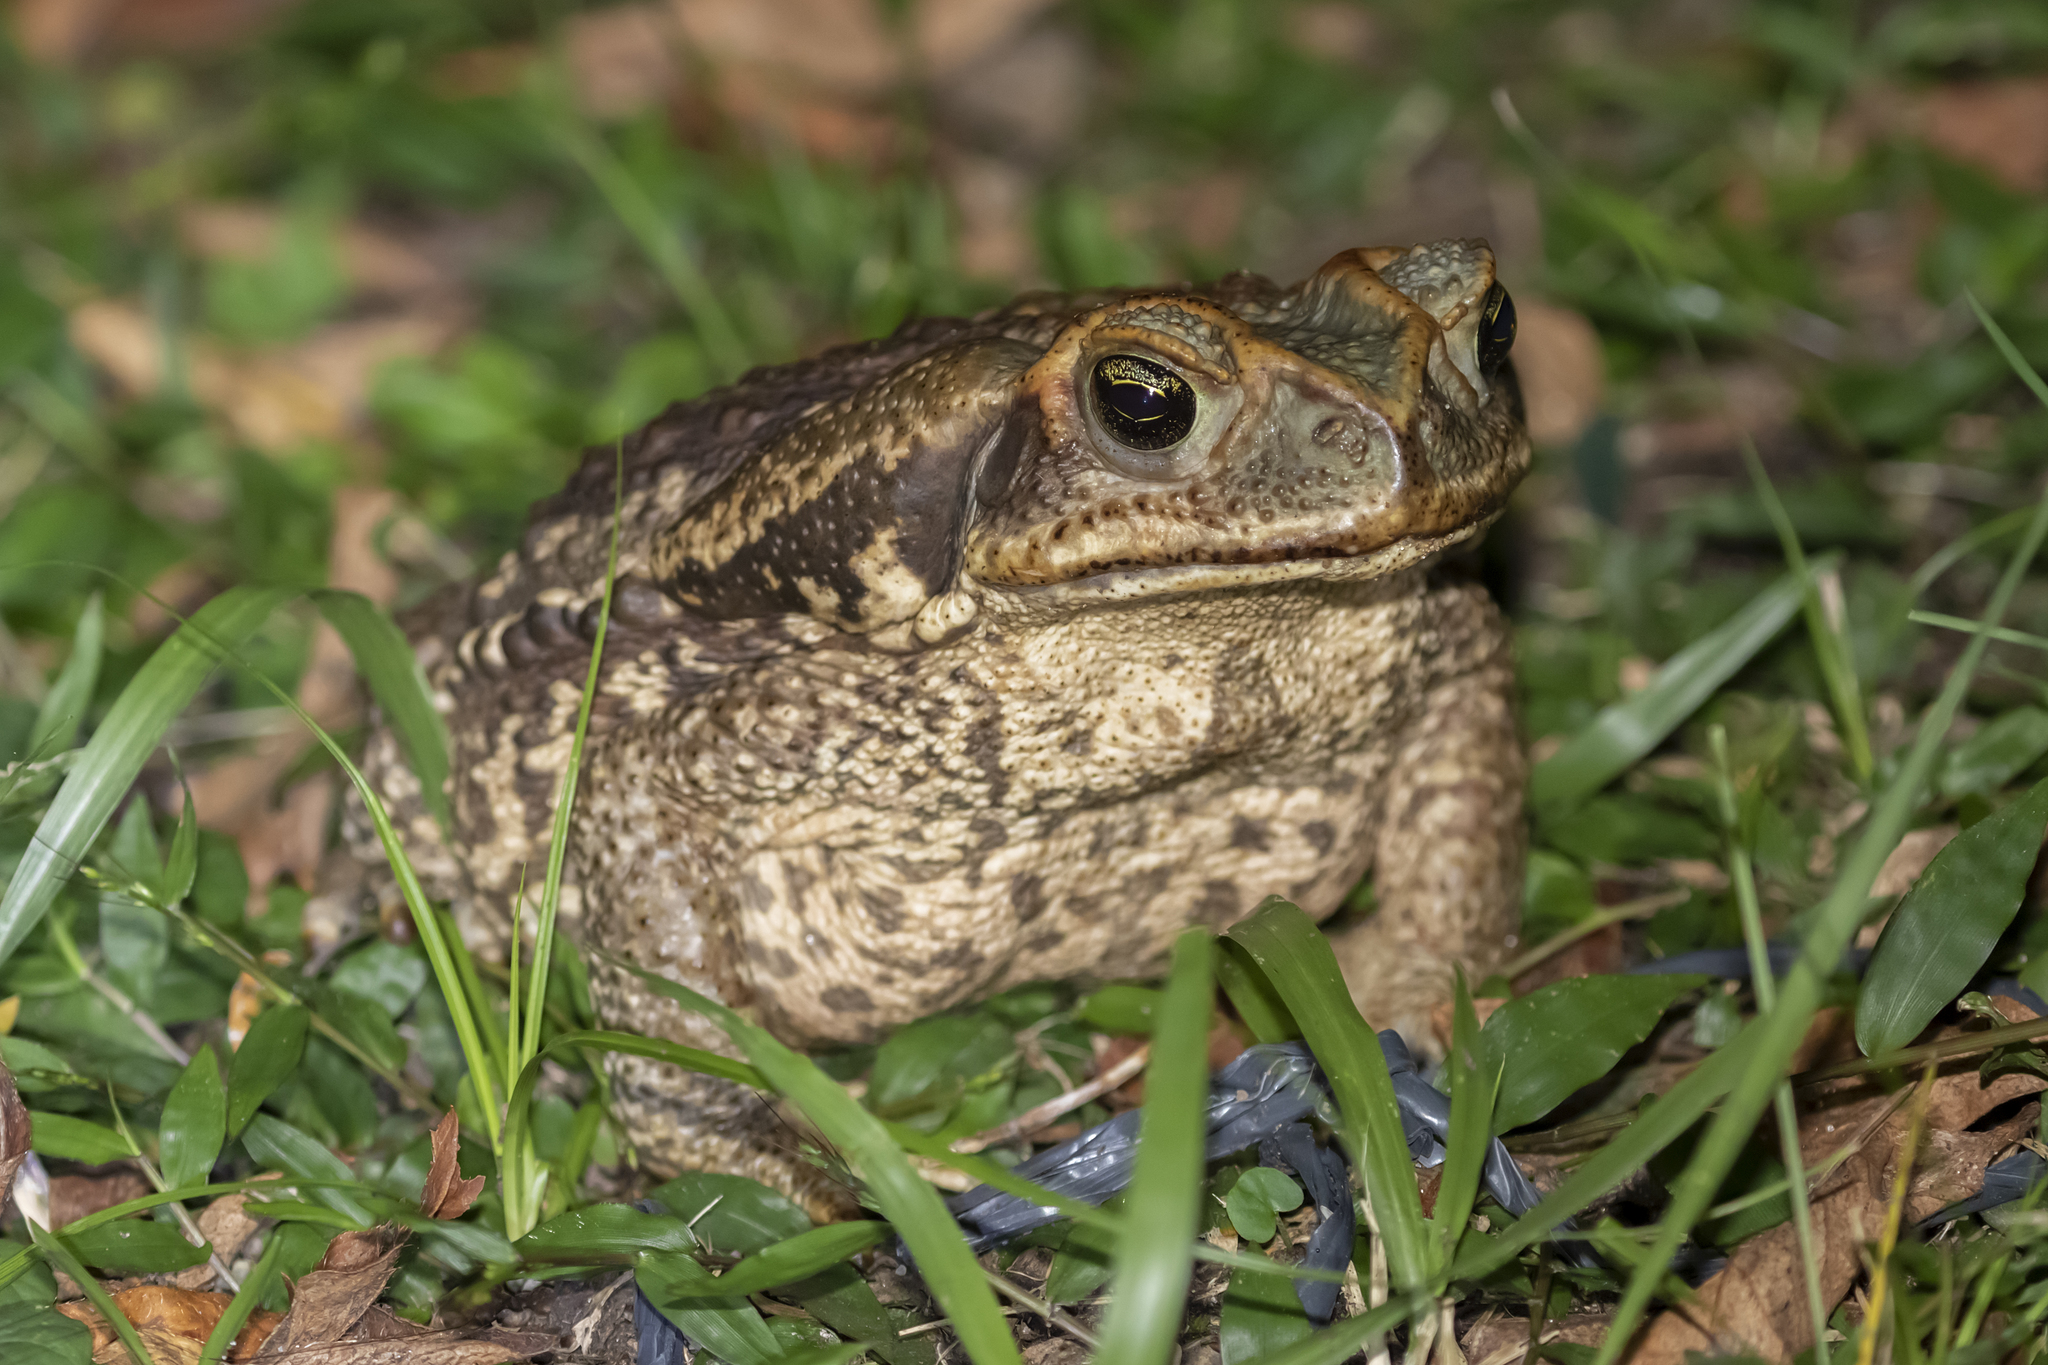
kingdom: Animalia
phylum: Chordata
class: Amphibia
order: Anura
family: Bufonidae
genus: Rhinella
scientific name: Rhinella diptycha
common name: Cope's toad
